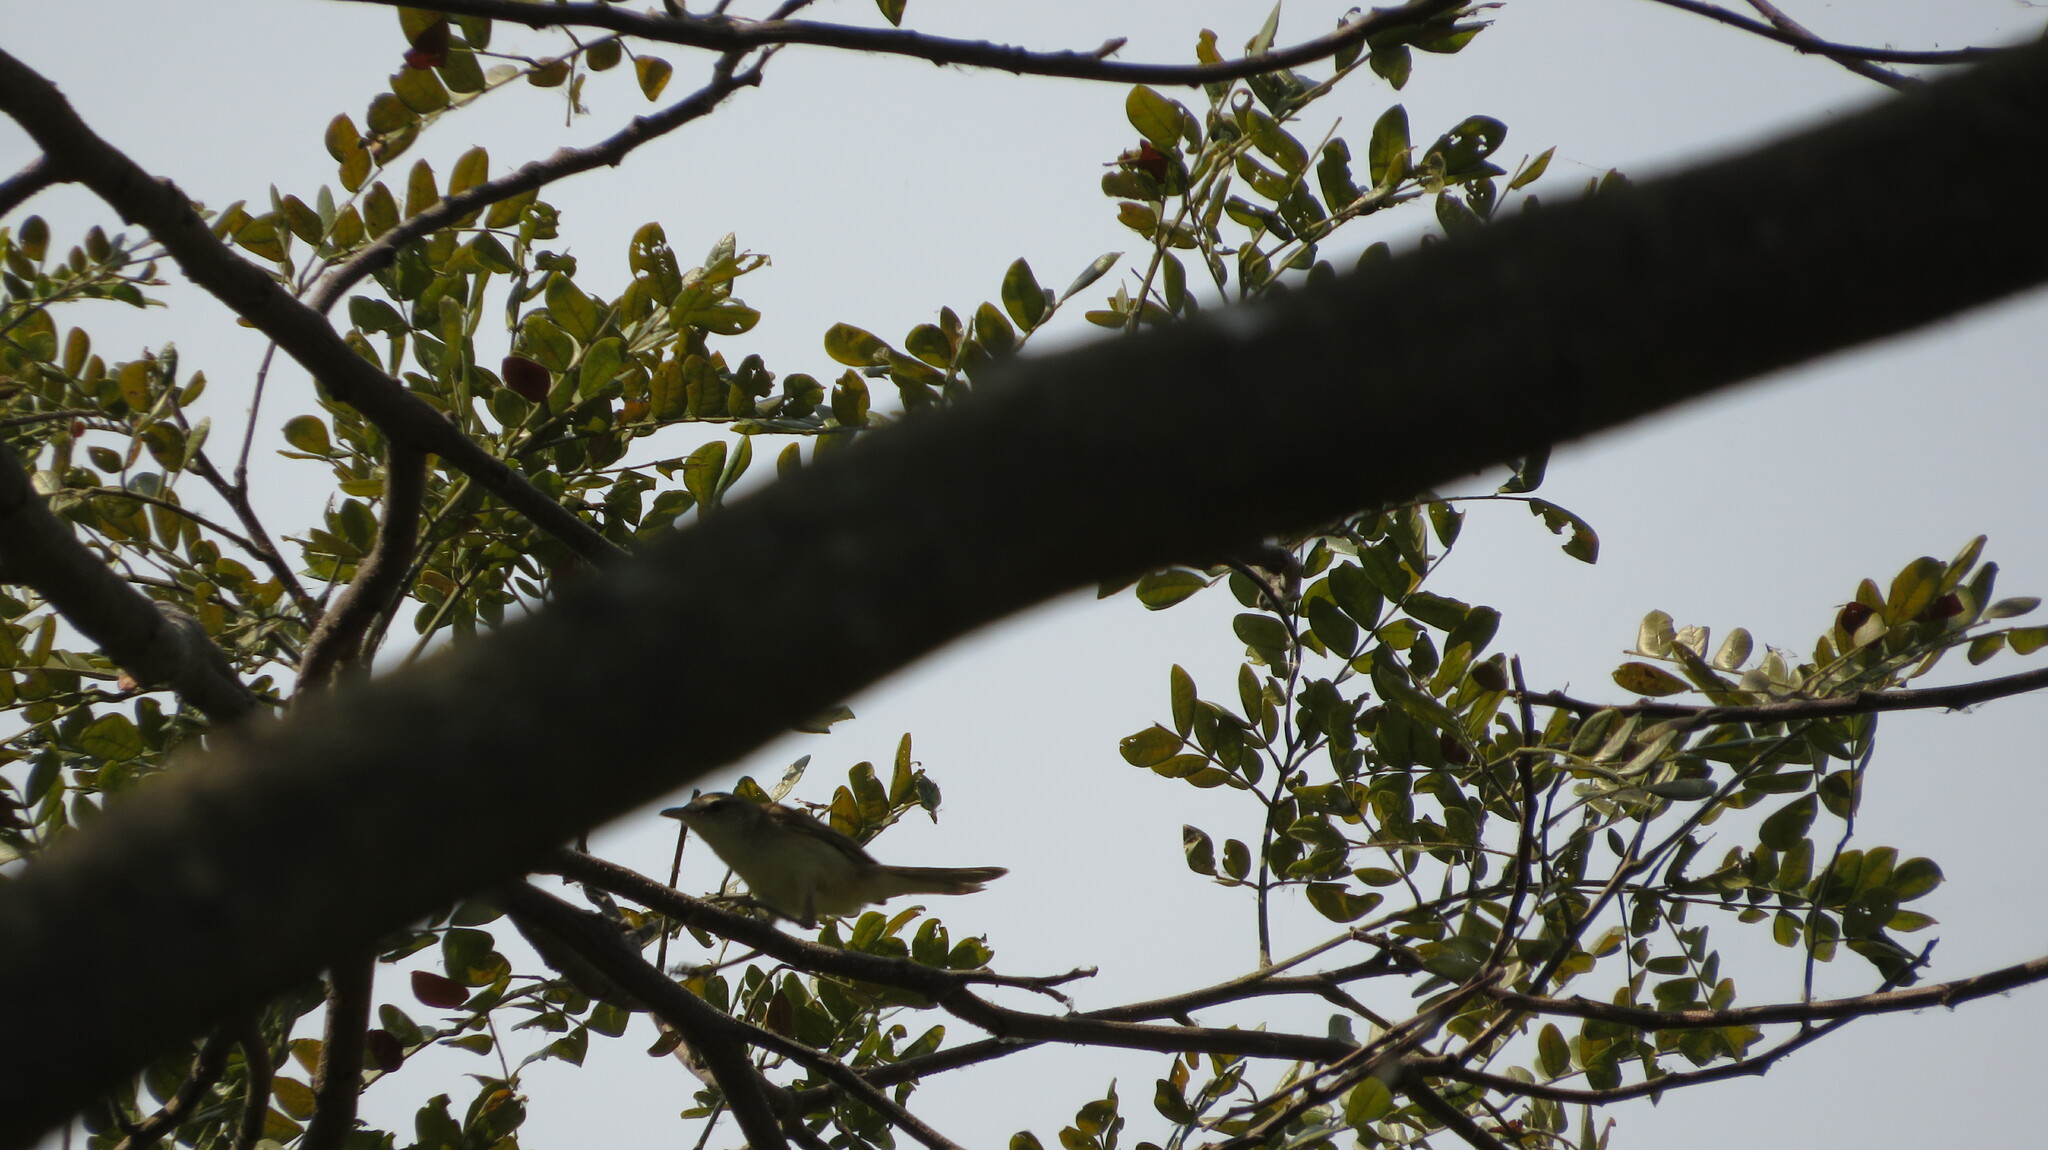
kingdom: Animalia
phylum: Chordata
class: Aves
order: Passeriformes
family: Acrocephalidae
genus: Acrocephalus
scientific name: Acrocephalus orientalis
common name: Oriental reed warbler
